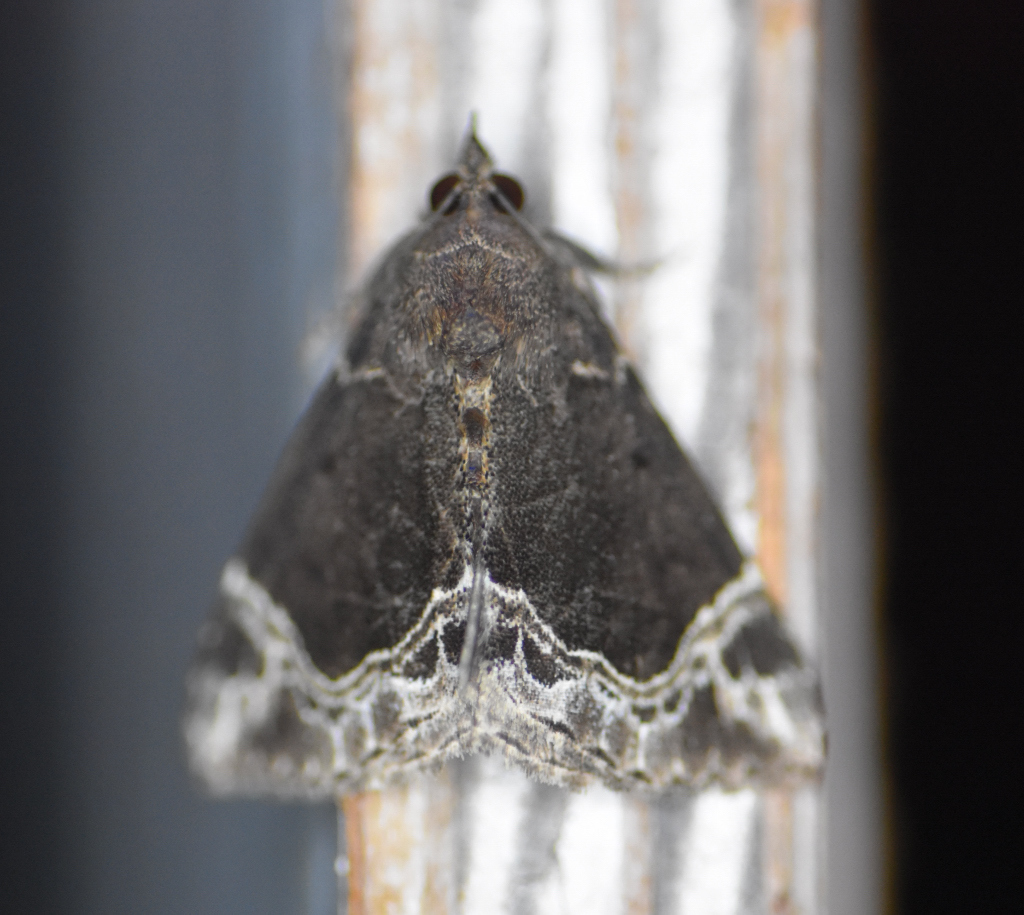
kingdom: Animalia
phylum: Arthropoda
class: Insecta
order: Lepidoptera
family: Erebidae
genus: Hypena
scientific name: Hypena abalienalis
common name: White-lined snout
